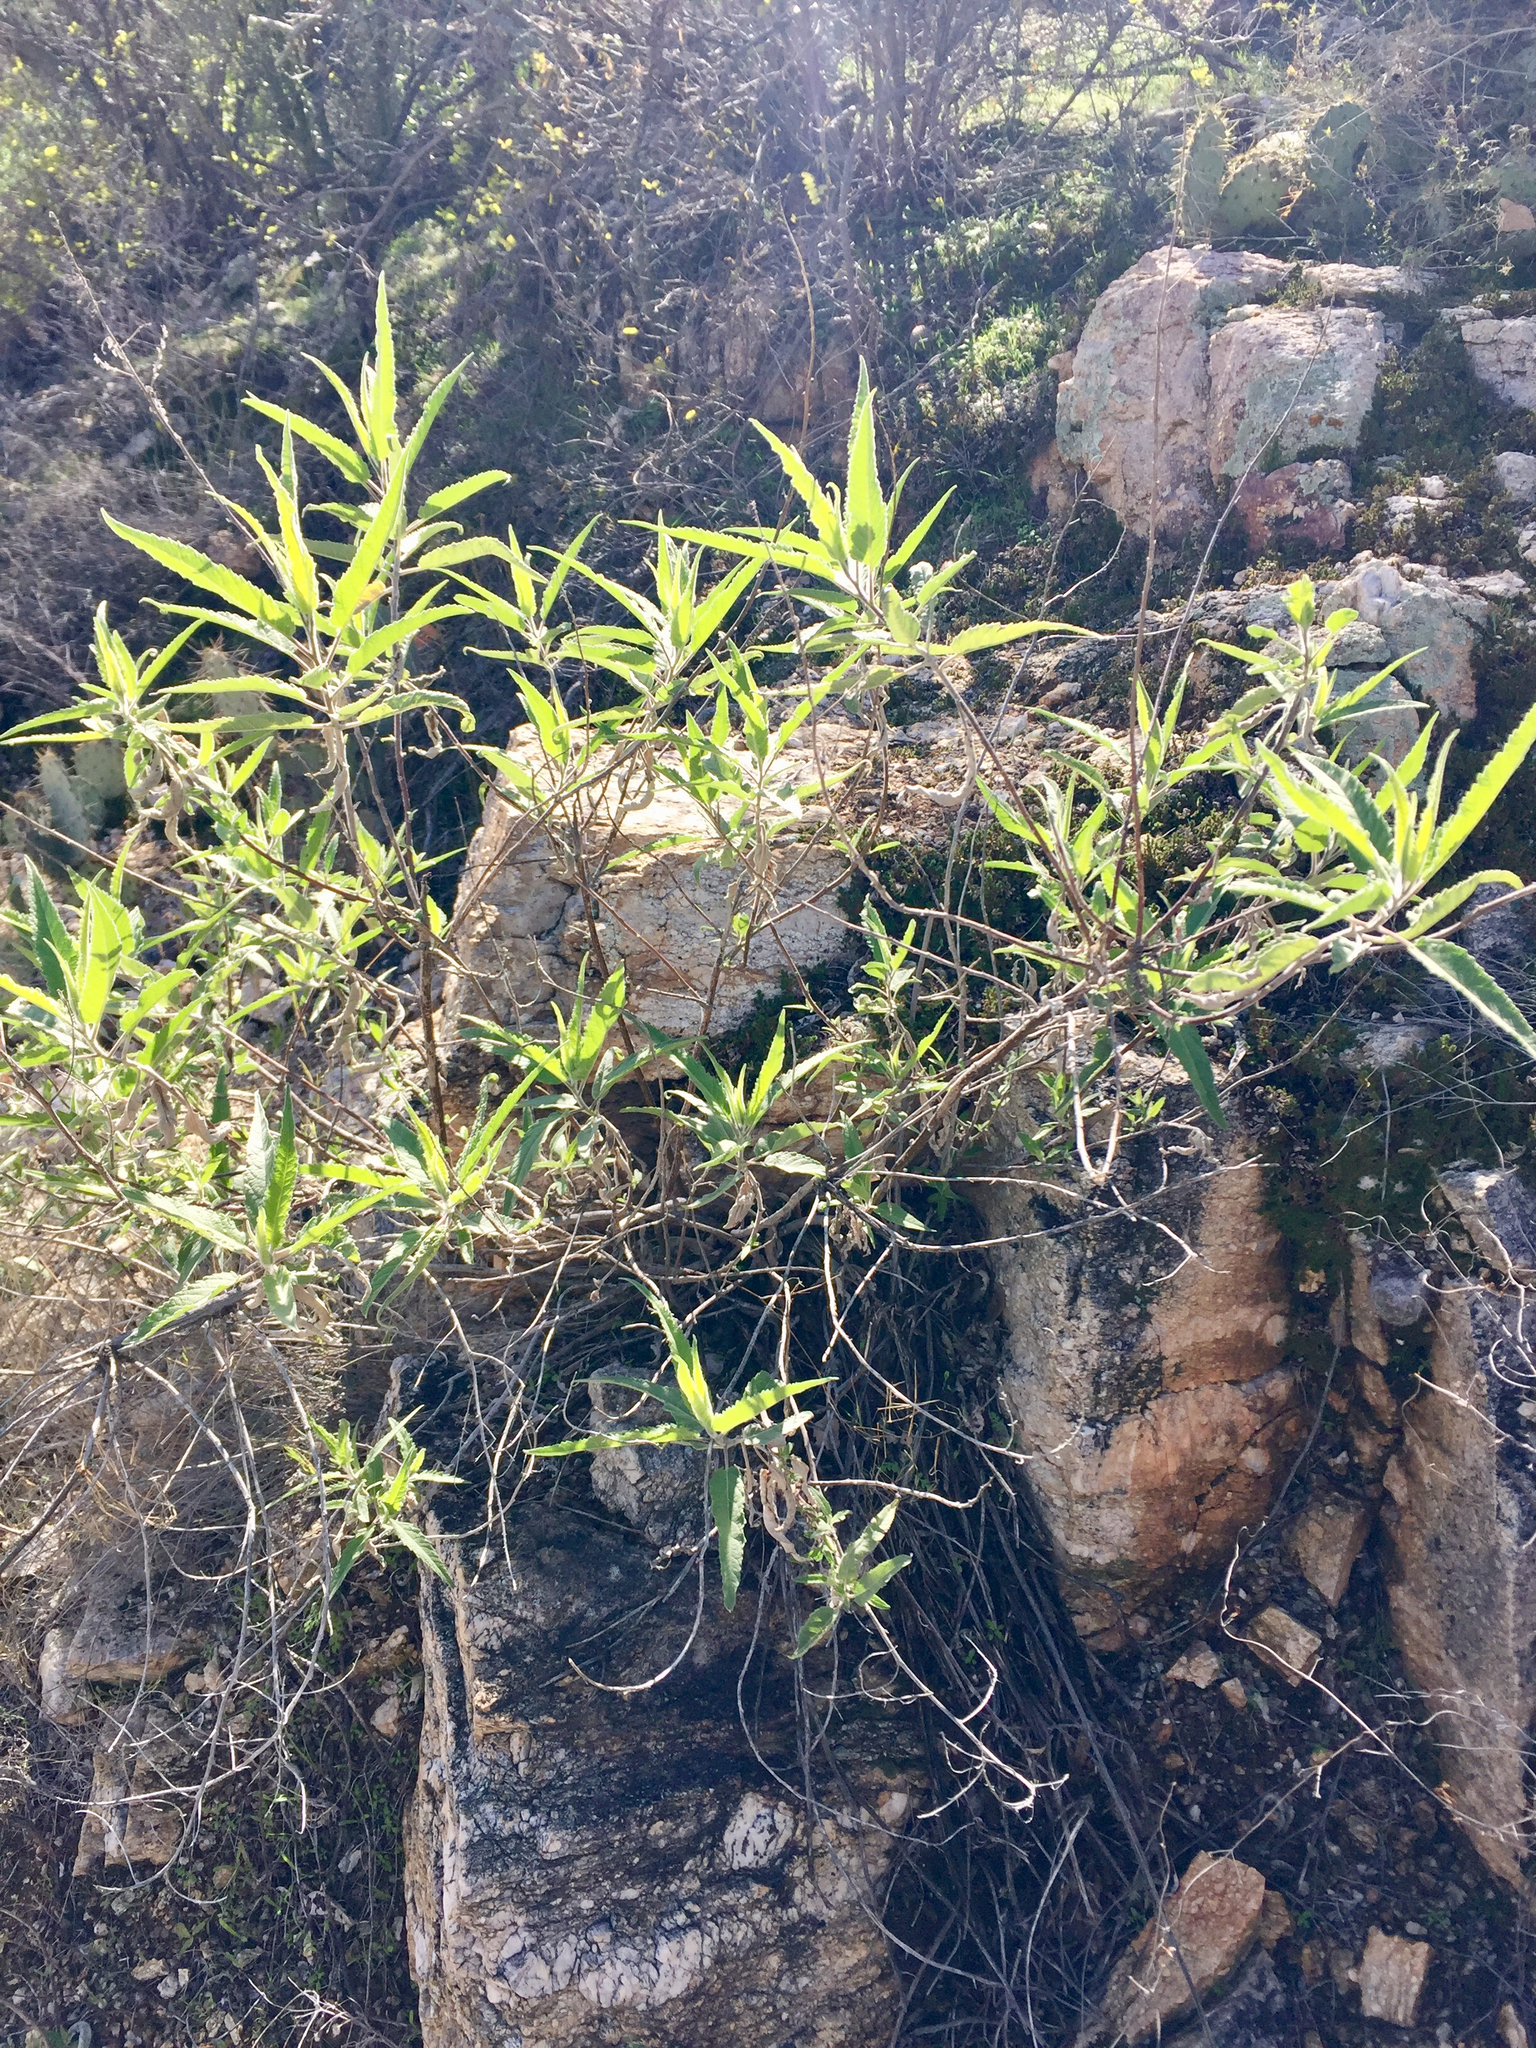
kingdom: Plantae
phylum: Tracheophyta
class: Magnoliopsida
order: Asterales
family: Asteraceae
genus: Ambrosia
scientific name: Ambrosia ambrosioides
